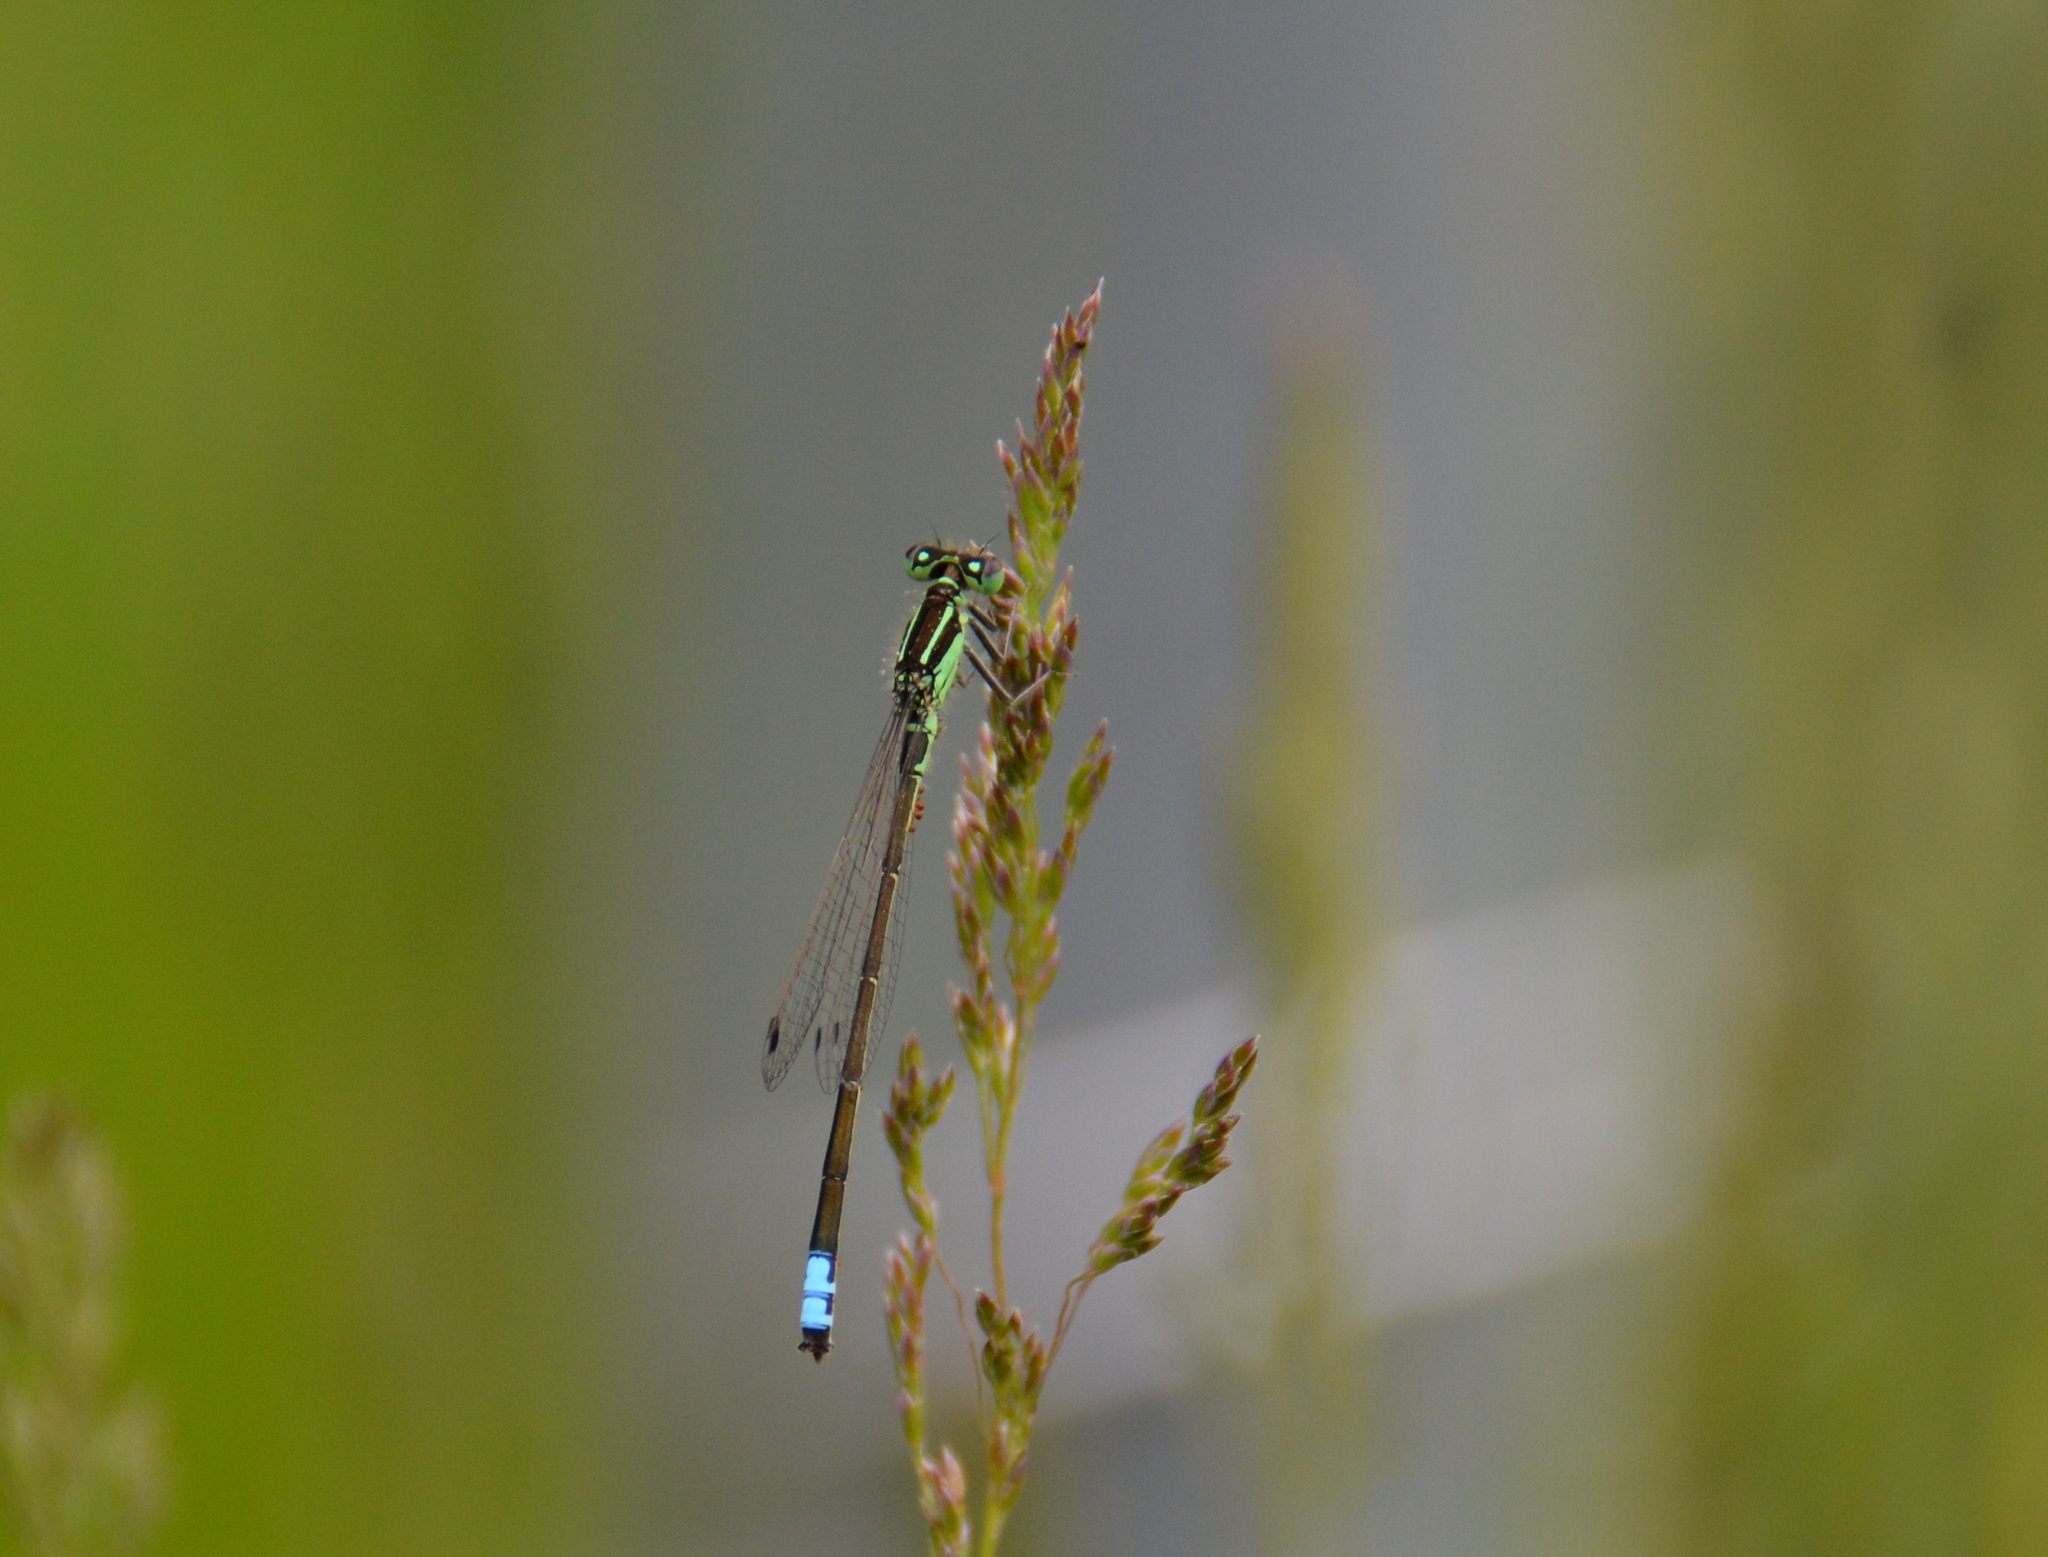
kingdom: Animalia
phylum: Arthropoda
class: Insecta
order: Odonata
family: Coenagrionidae
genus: Ischnura
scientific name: Ischnura verticalis
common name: Eastern forktail
